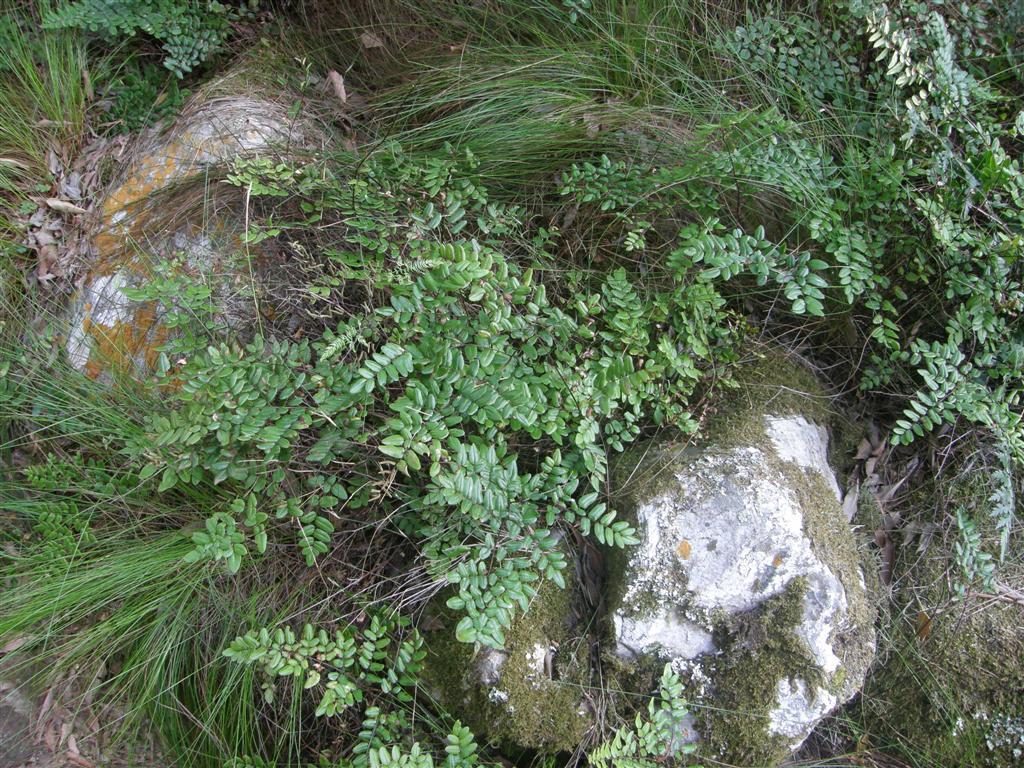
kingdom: Plantae
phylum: Tracheophyta
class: Polypodiopsida
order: Polypodiales
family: Pteridaceae
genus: Pellaea
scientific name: Pellaea pteroides
